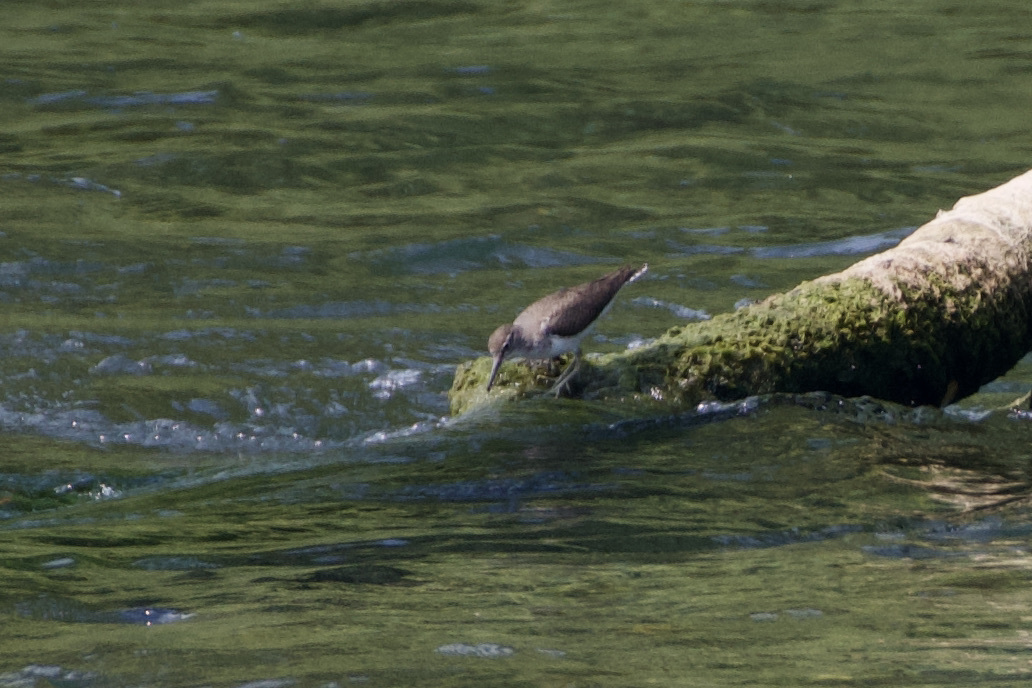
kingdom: Animalia
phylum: Chordata
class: Aves
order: Charadriiformes
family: Scolopacidae
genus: Actitis
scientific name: Actitis hypoleucos
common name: Common sandpiper
